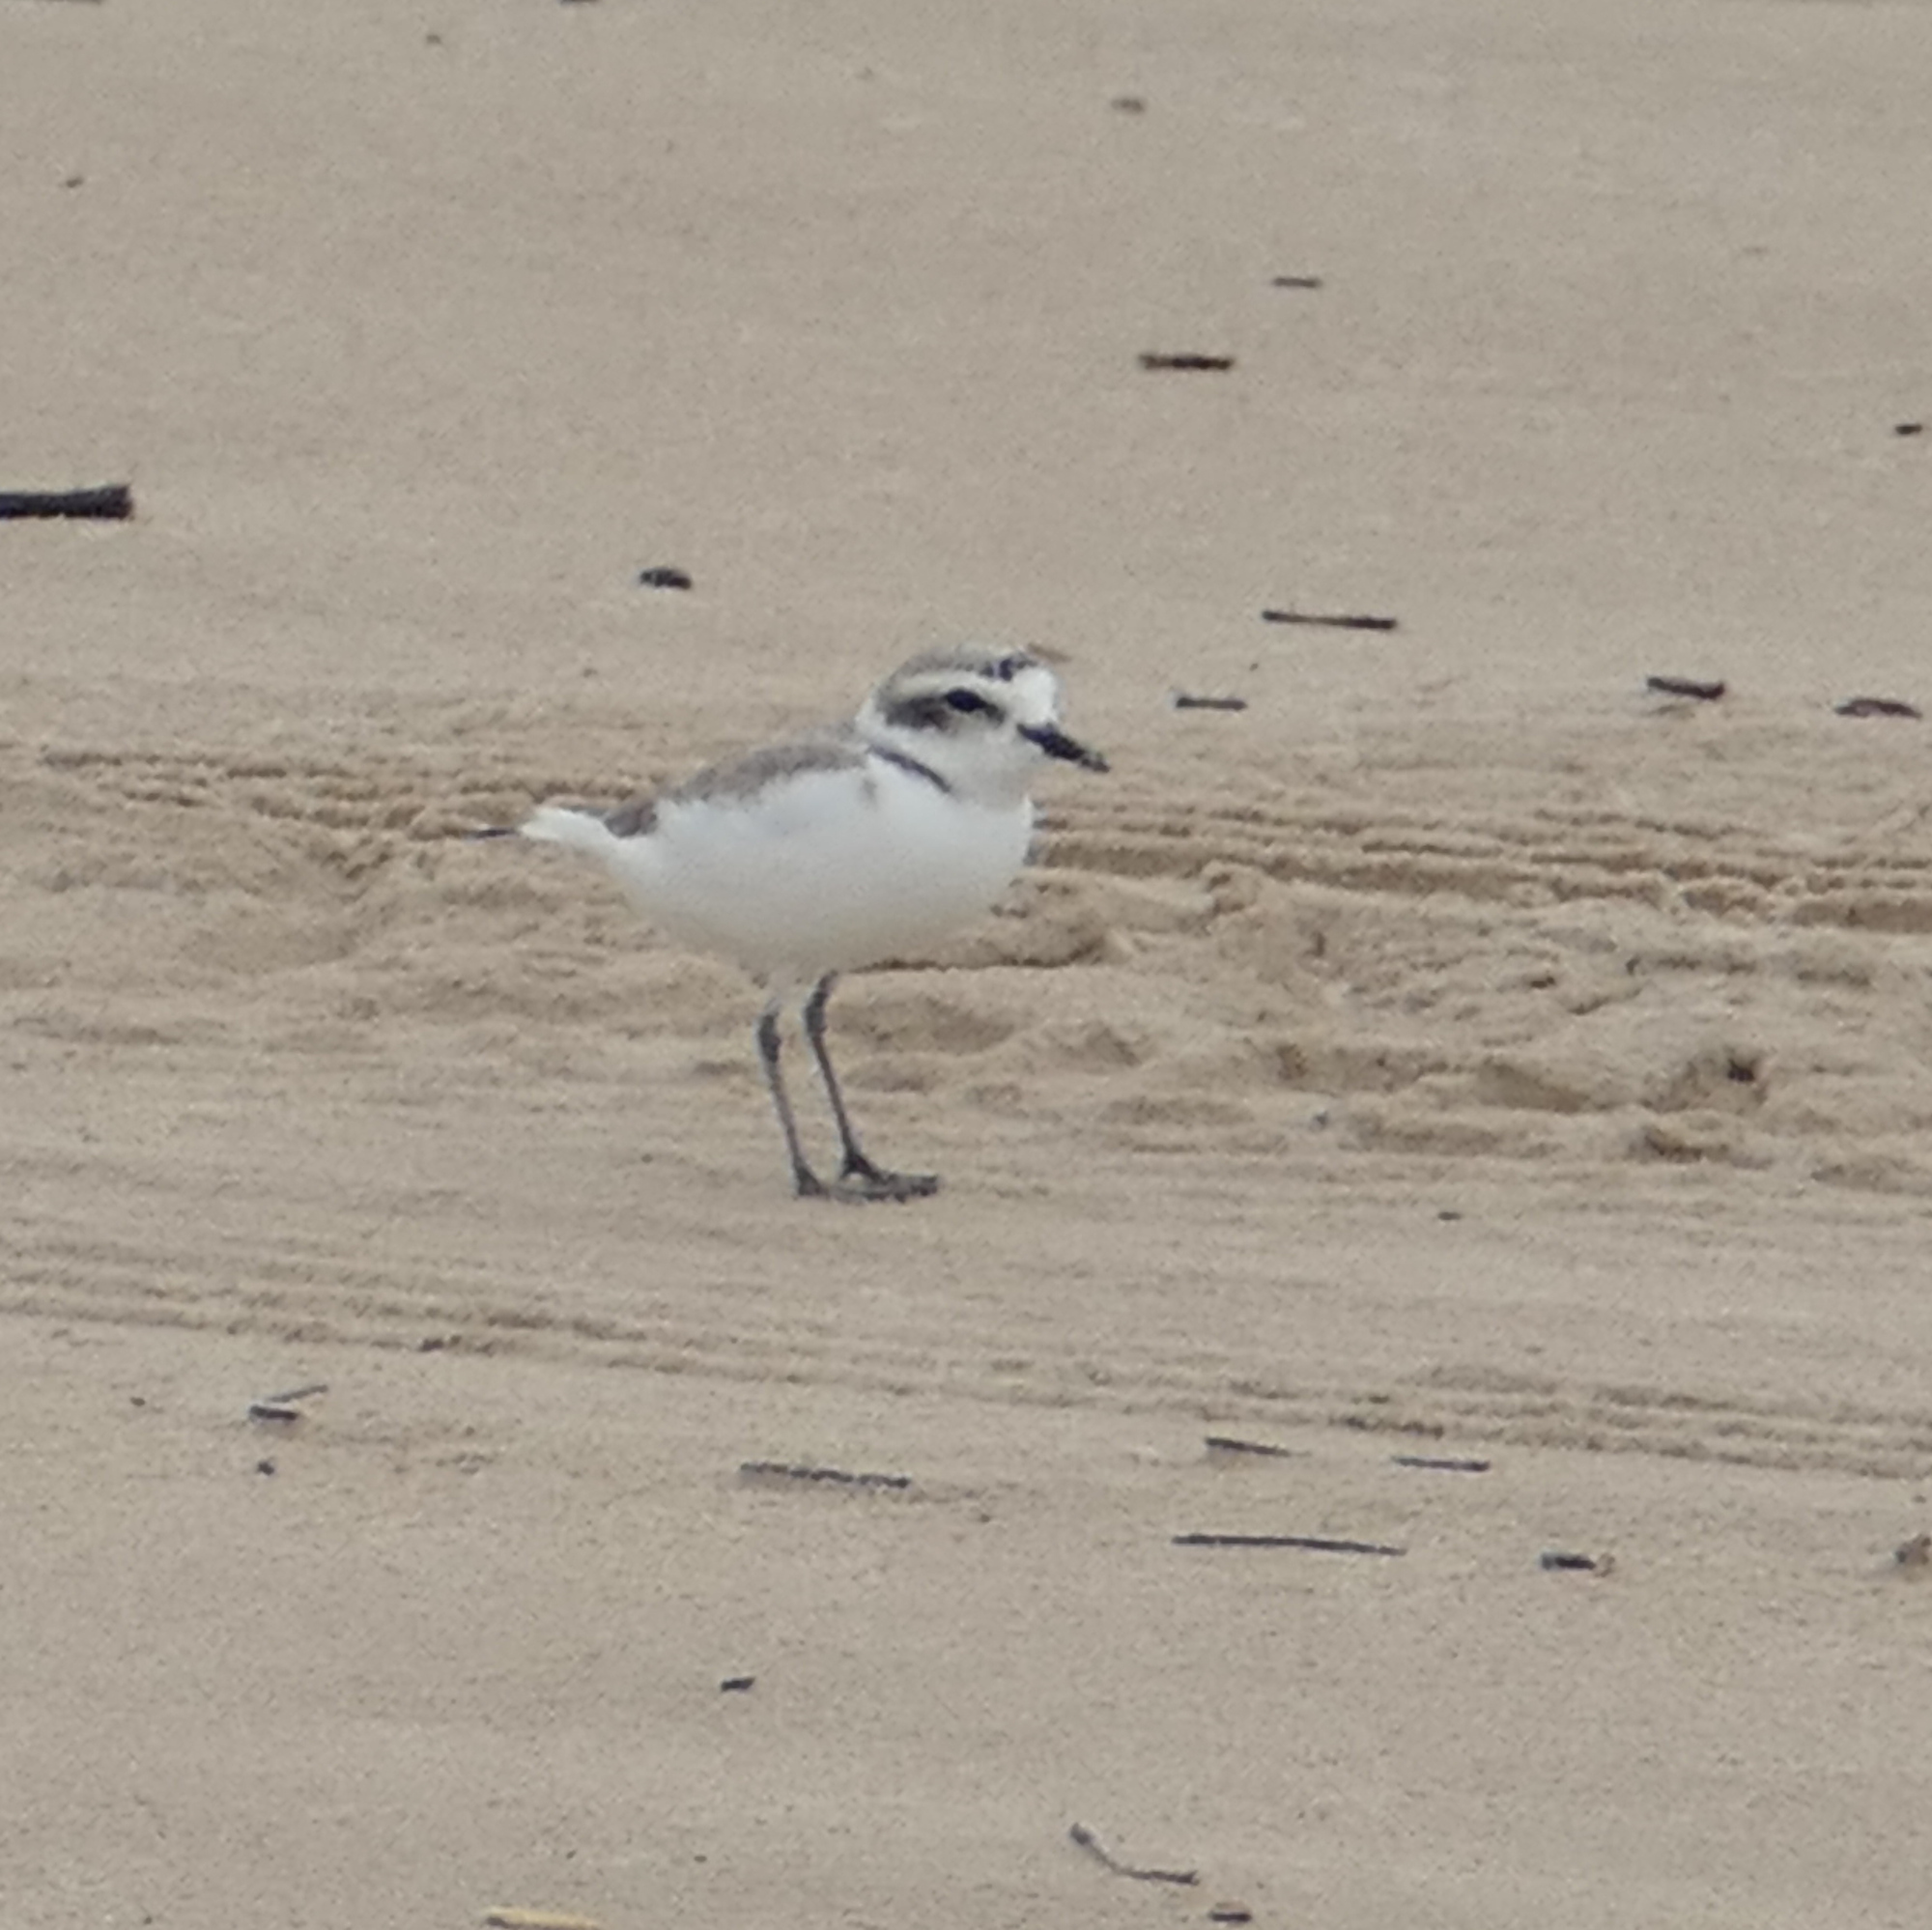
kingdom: Animalia
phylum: Chordata
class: Aves
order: Charadriiformes
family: Charadriidae
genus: Anarhynchus
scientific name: Anarhynchus
